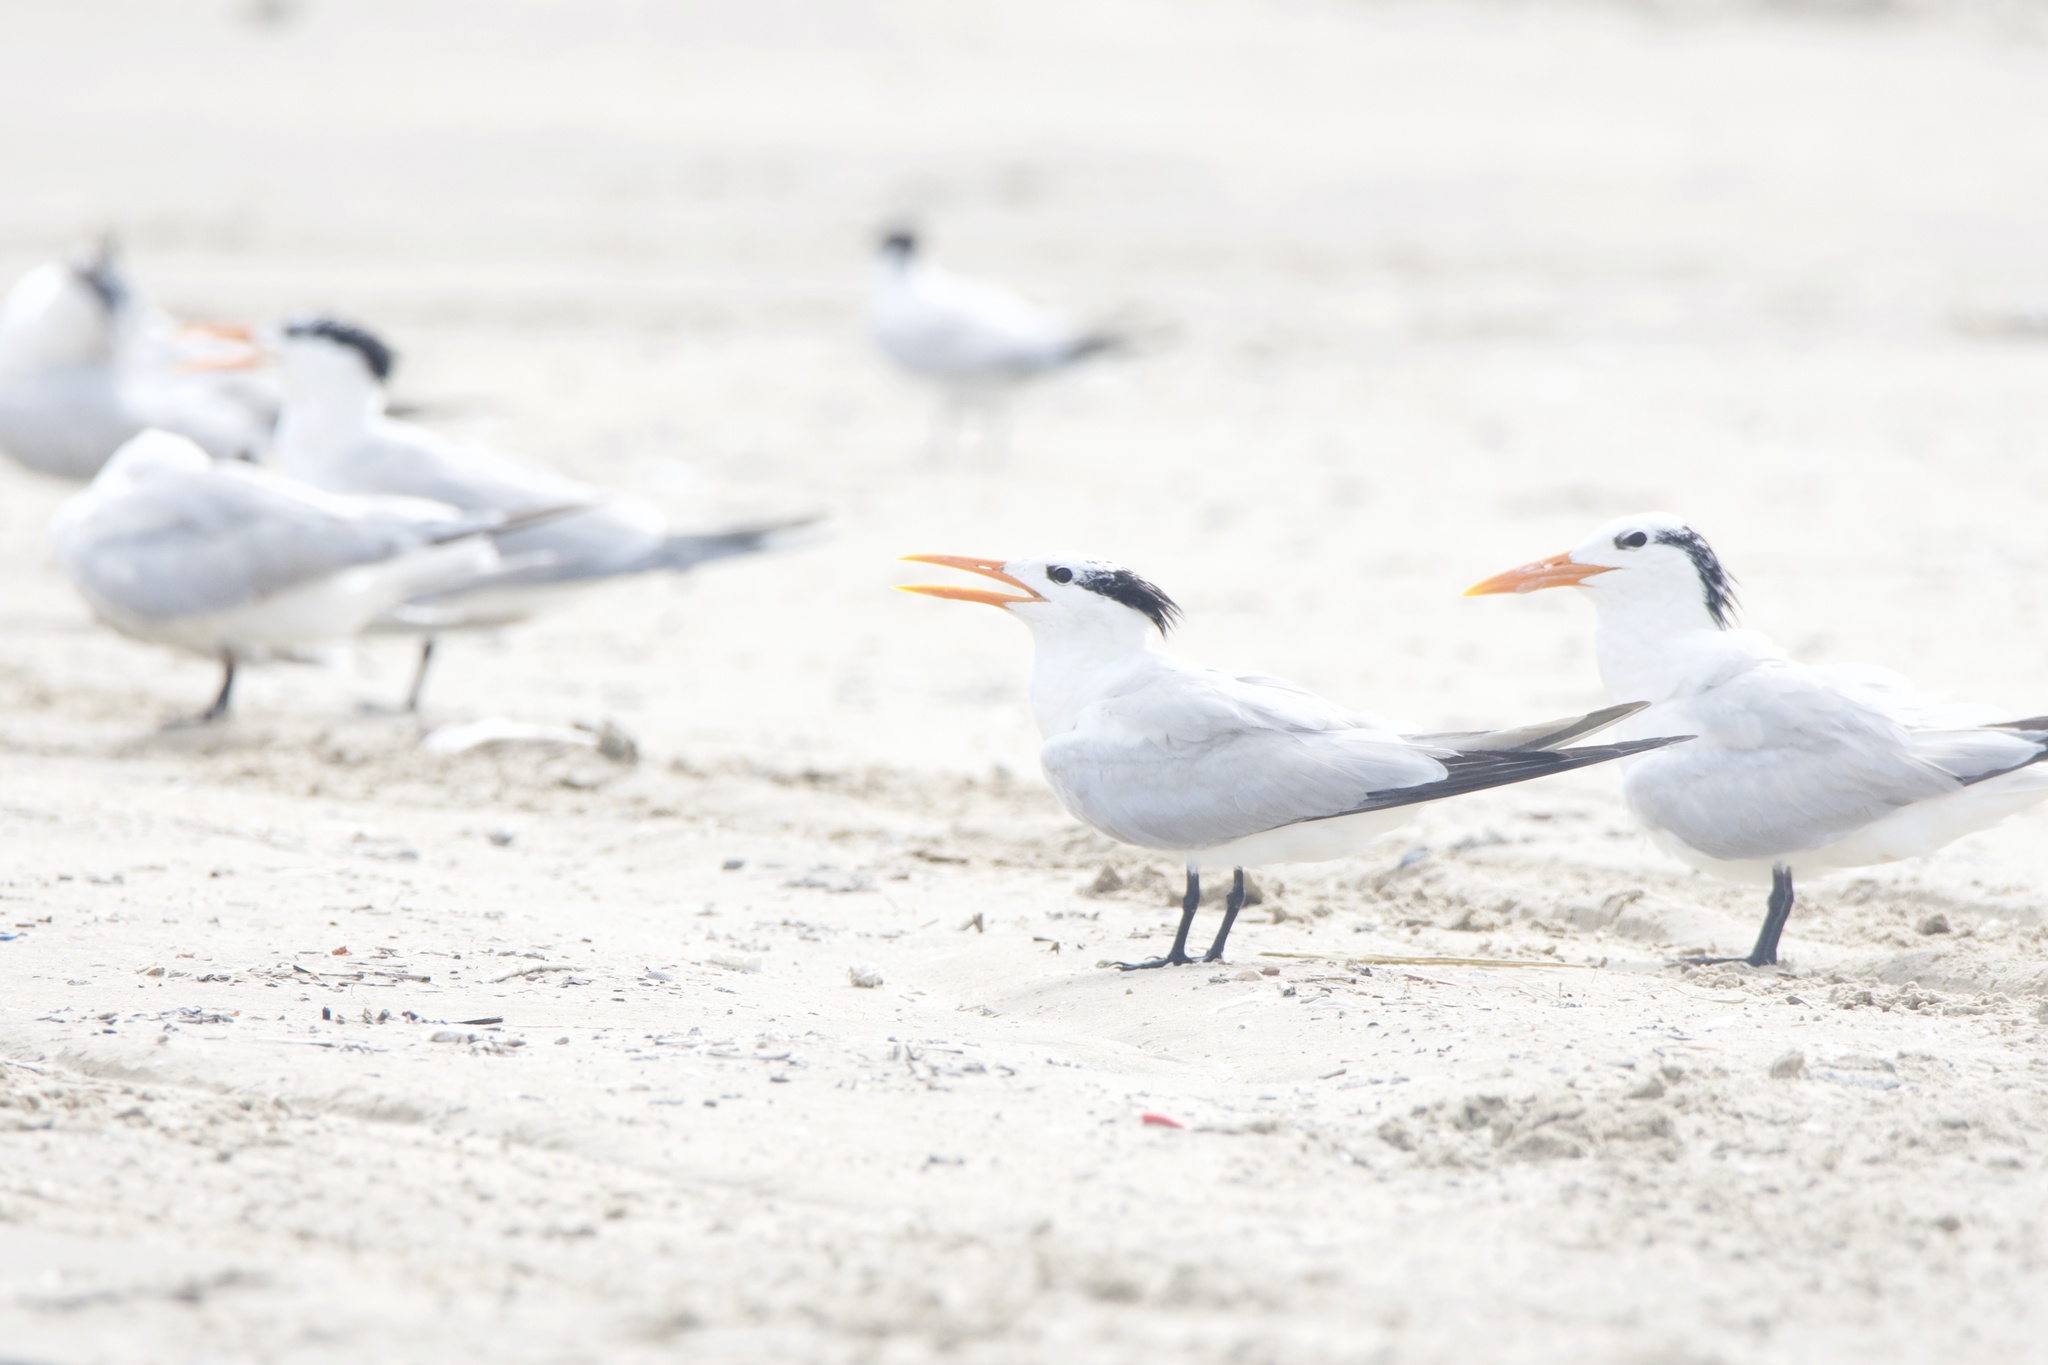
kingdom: Animalia
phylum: Chordata
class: Aves
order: Charadriiformes
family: Laridae
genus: Thalasseus
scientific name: Thalasseus maximus
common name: Royal tern
